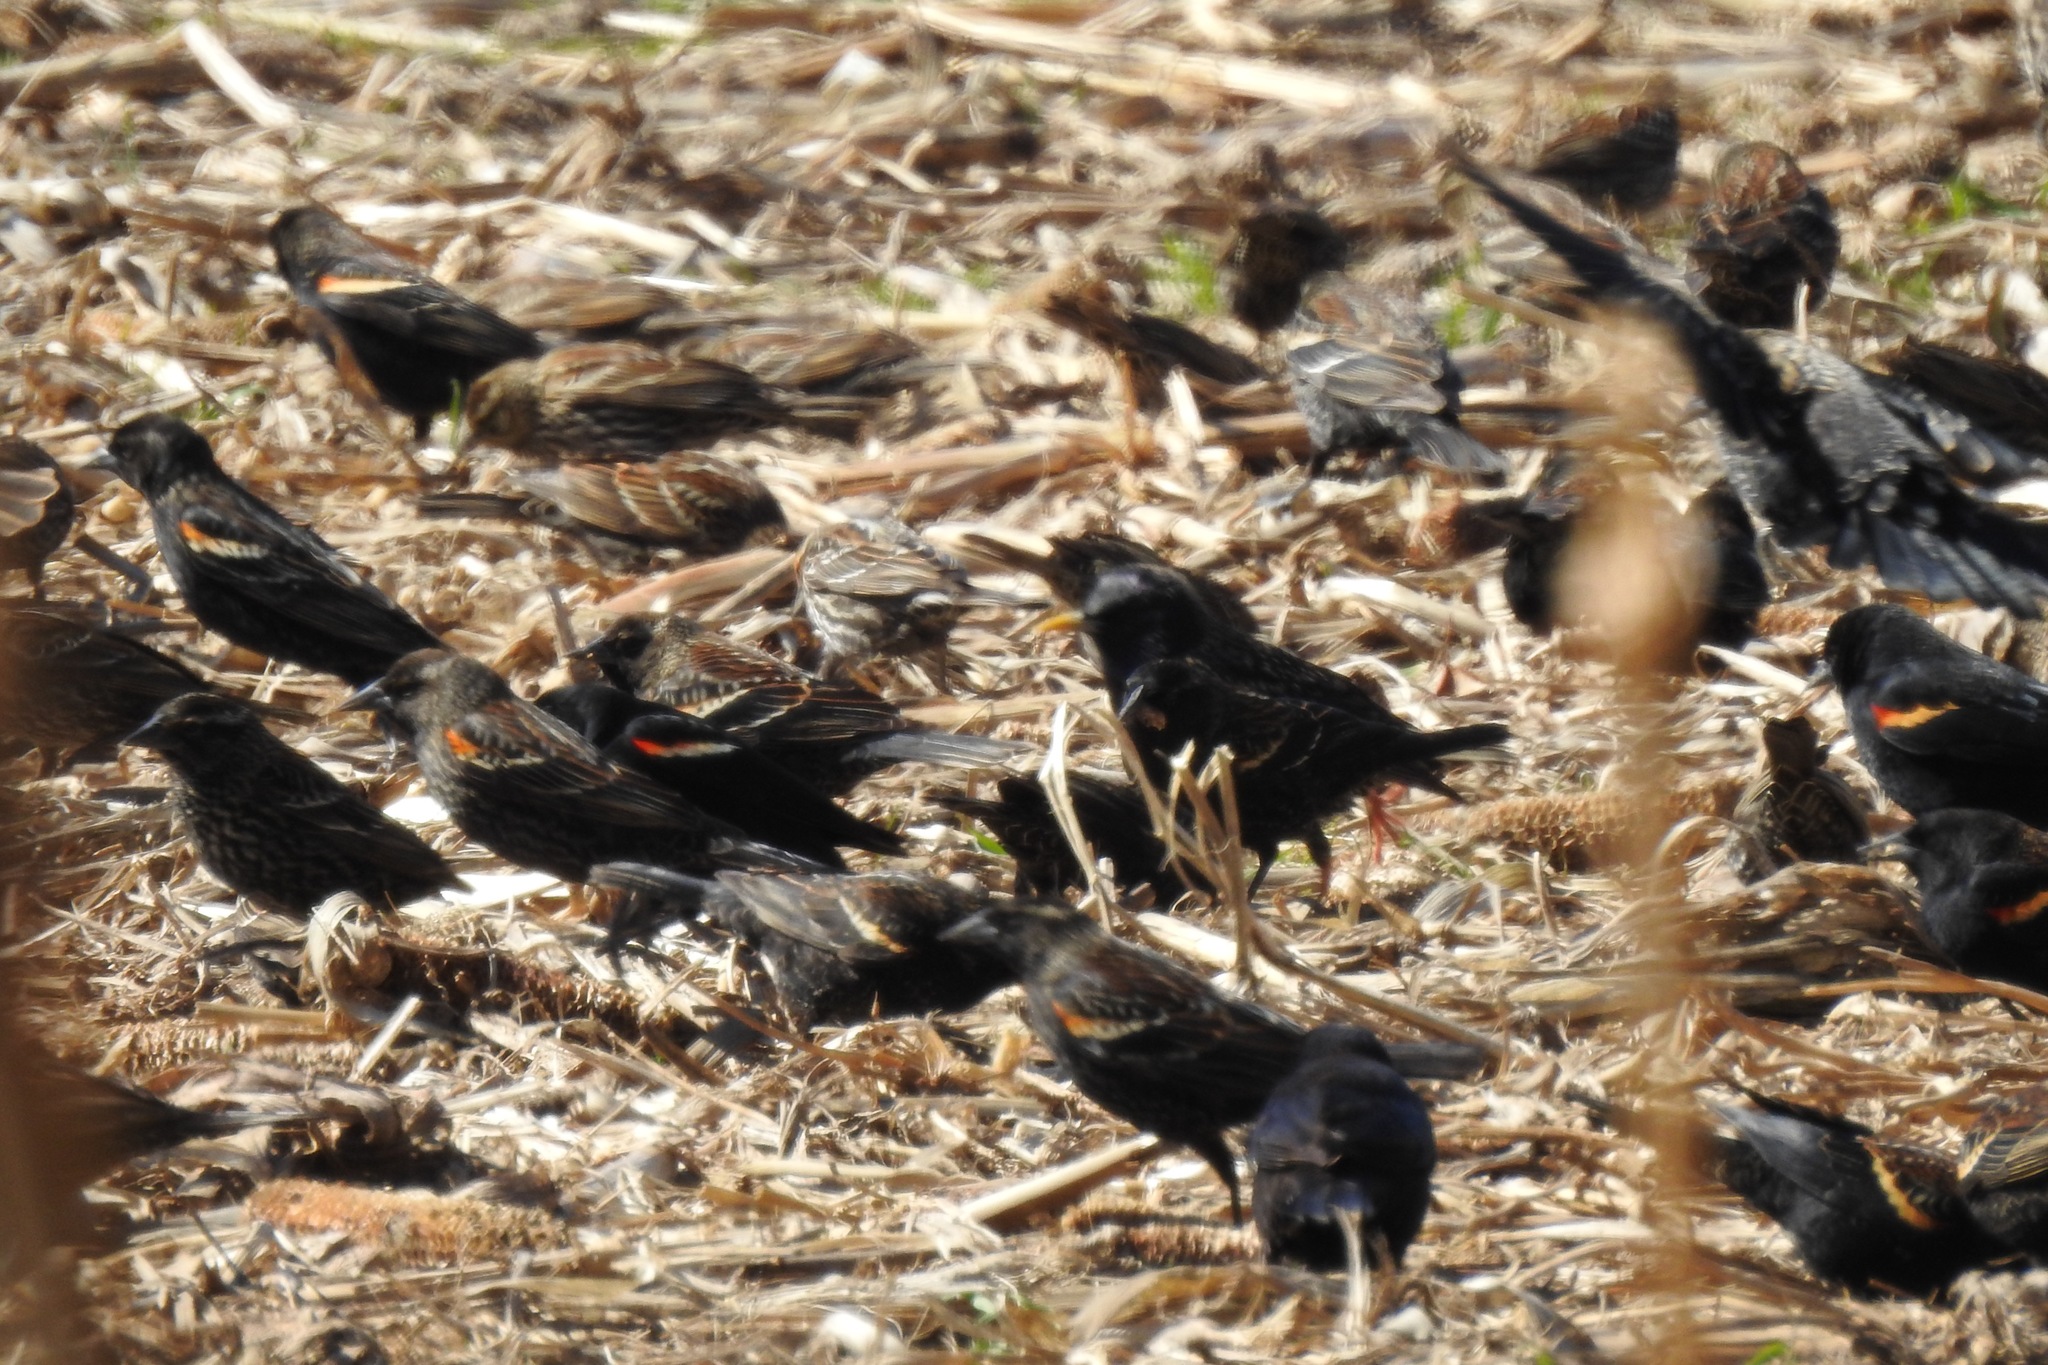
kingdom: Animalia
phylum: Chordata
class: Aves
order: Passeriformes
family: Icteridae
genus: Agelaius
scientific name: Agelaius phoeniceus
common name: Red-winged blackbird
